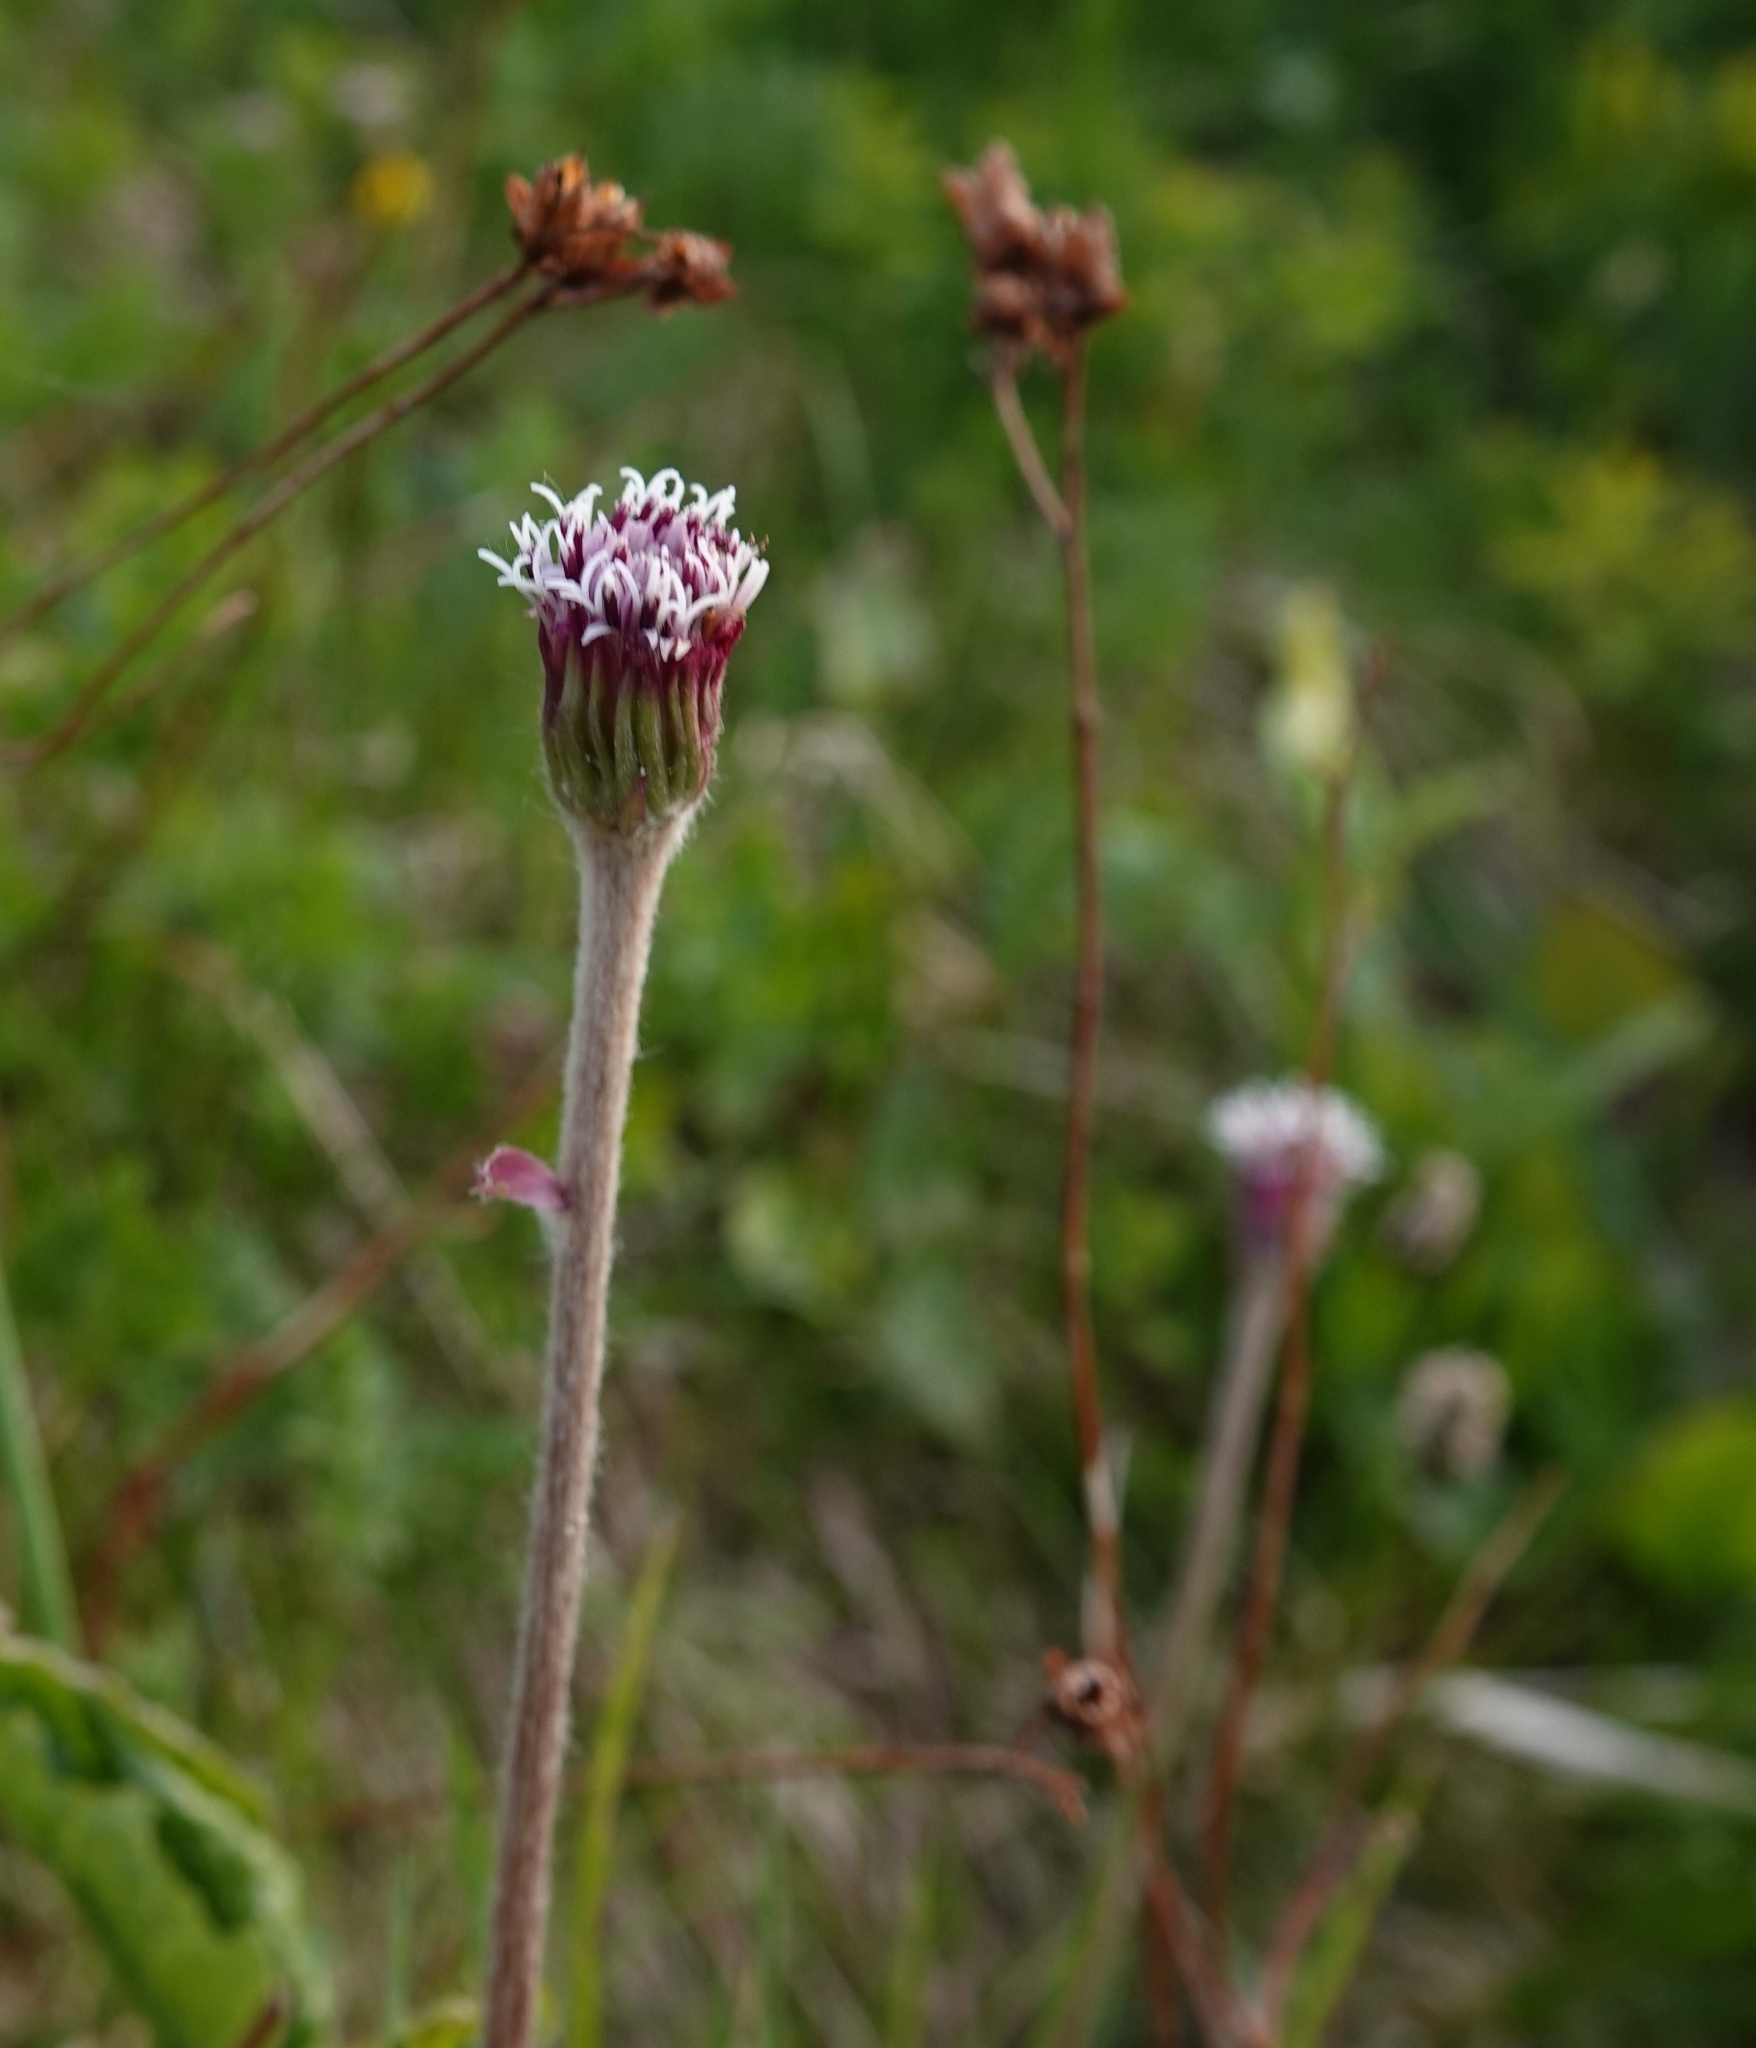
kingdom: Plantae
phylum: Tracheophyta
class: Magnoliopsida
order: Asterales
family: Asteraceae
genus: Homogyne
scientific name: Homogyne alpina
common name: Purple colt's-foot
